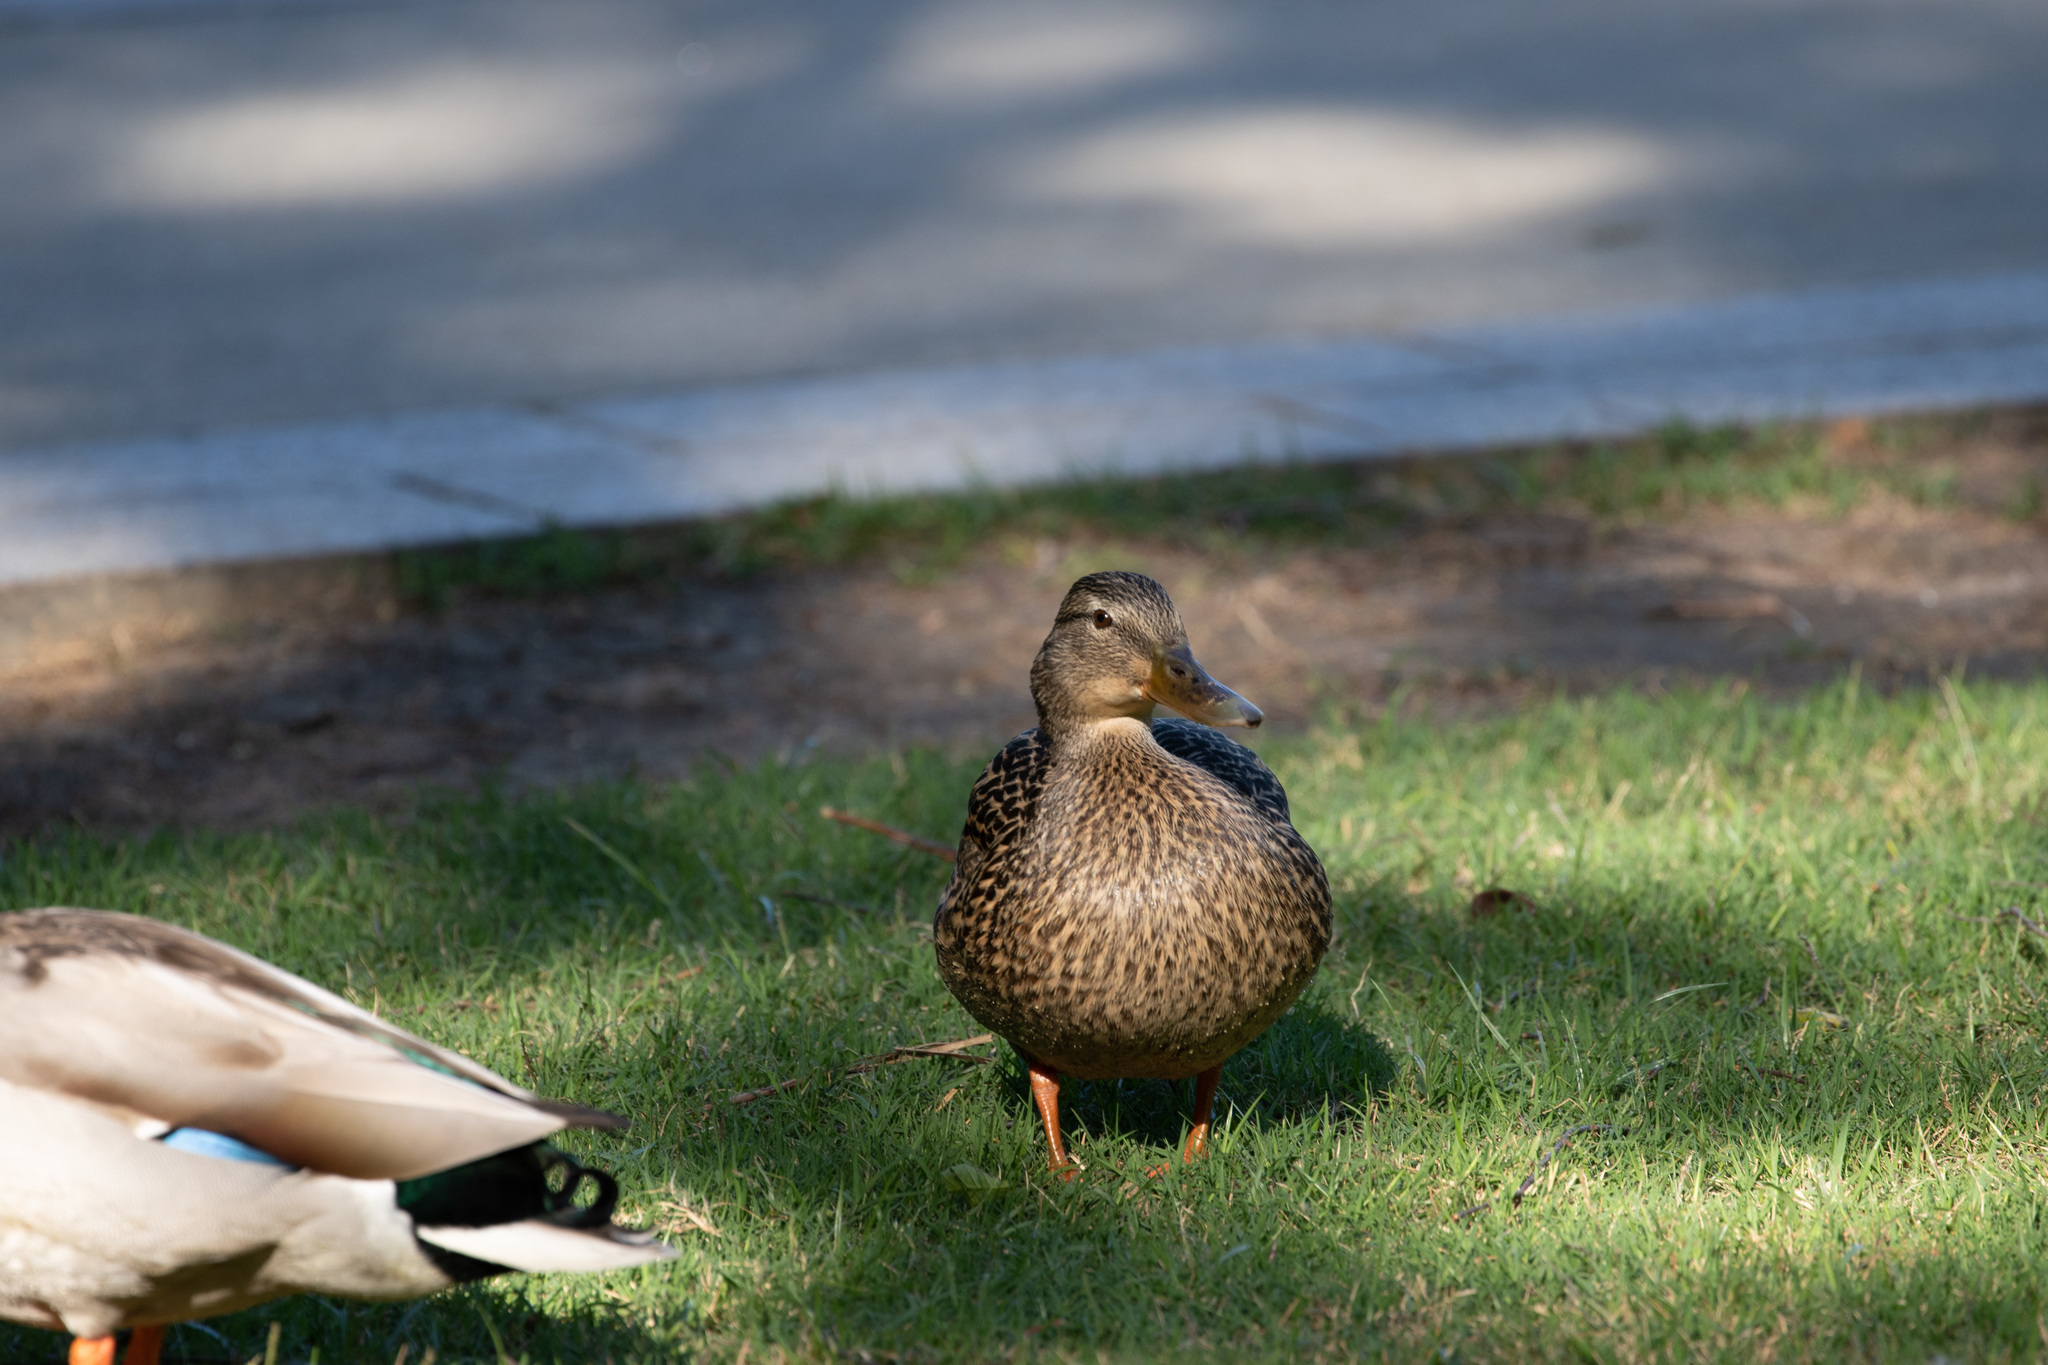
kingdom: Animalia
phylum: Chordata
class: Aves
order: Anseriformes
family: Anatidae
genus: Anas
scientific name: Anas platyrhynchos
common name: Mallard
